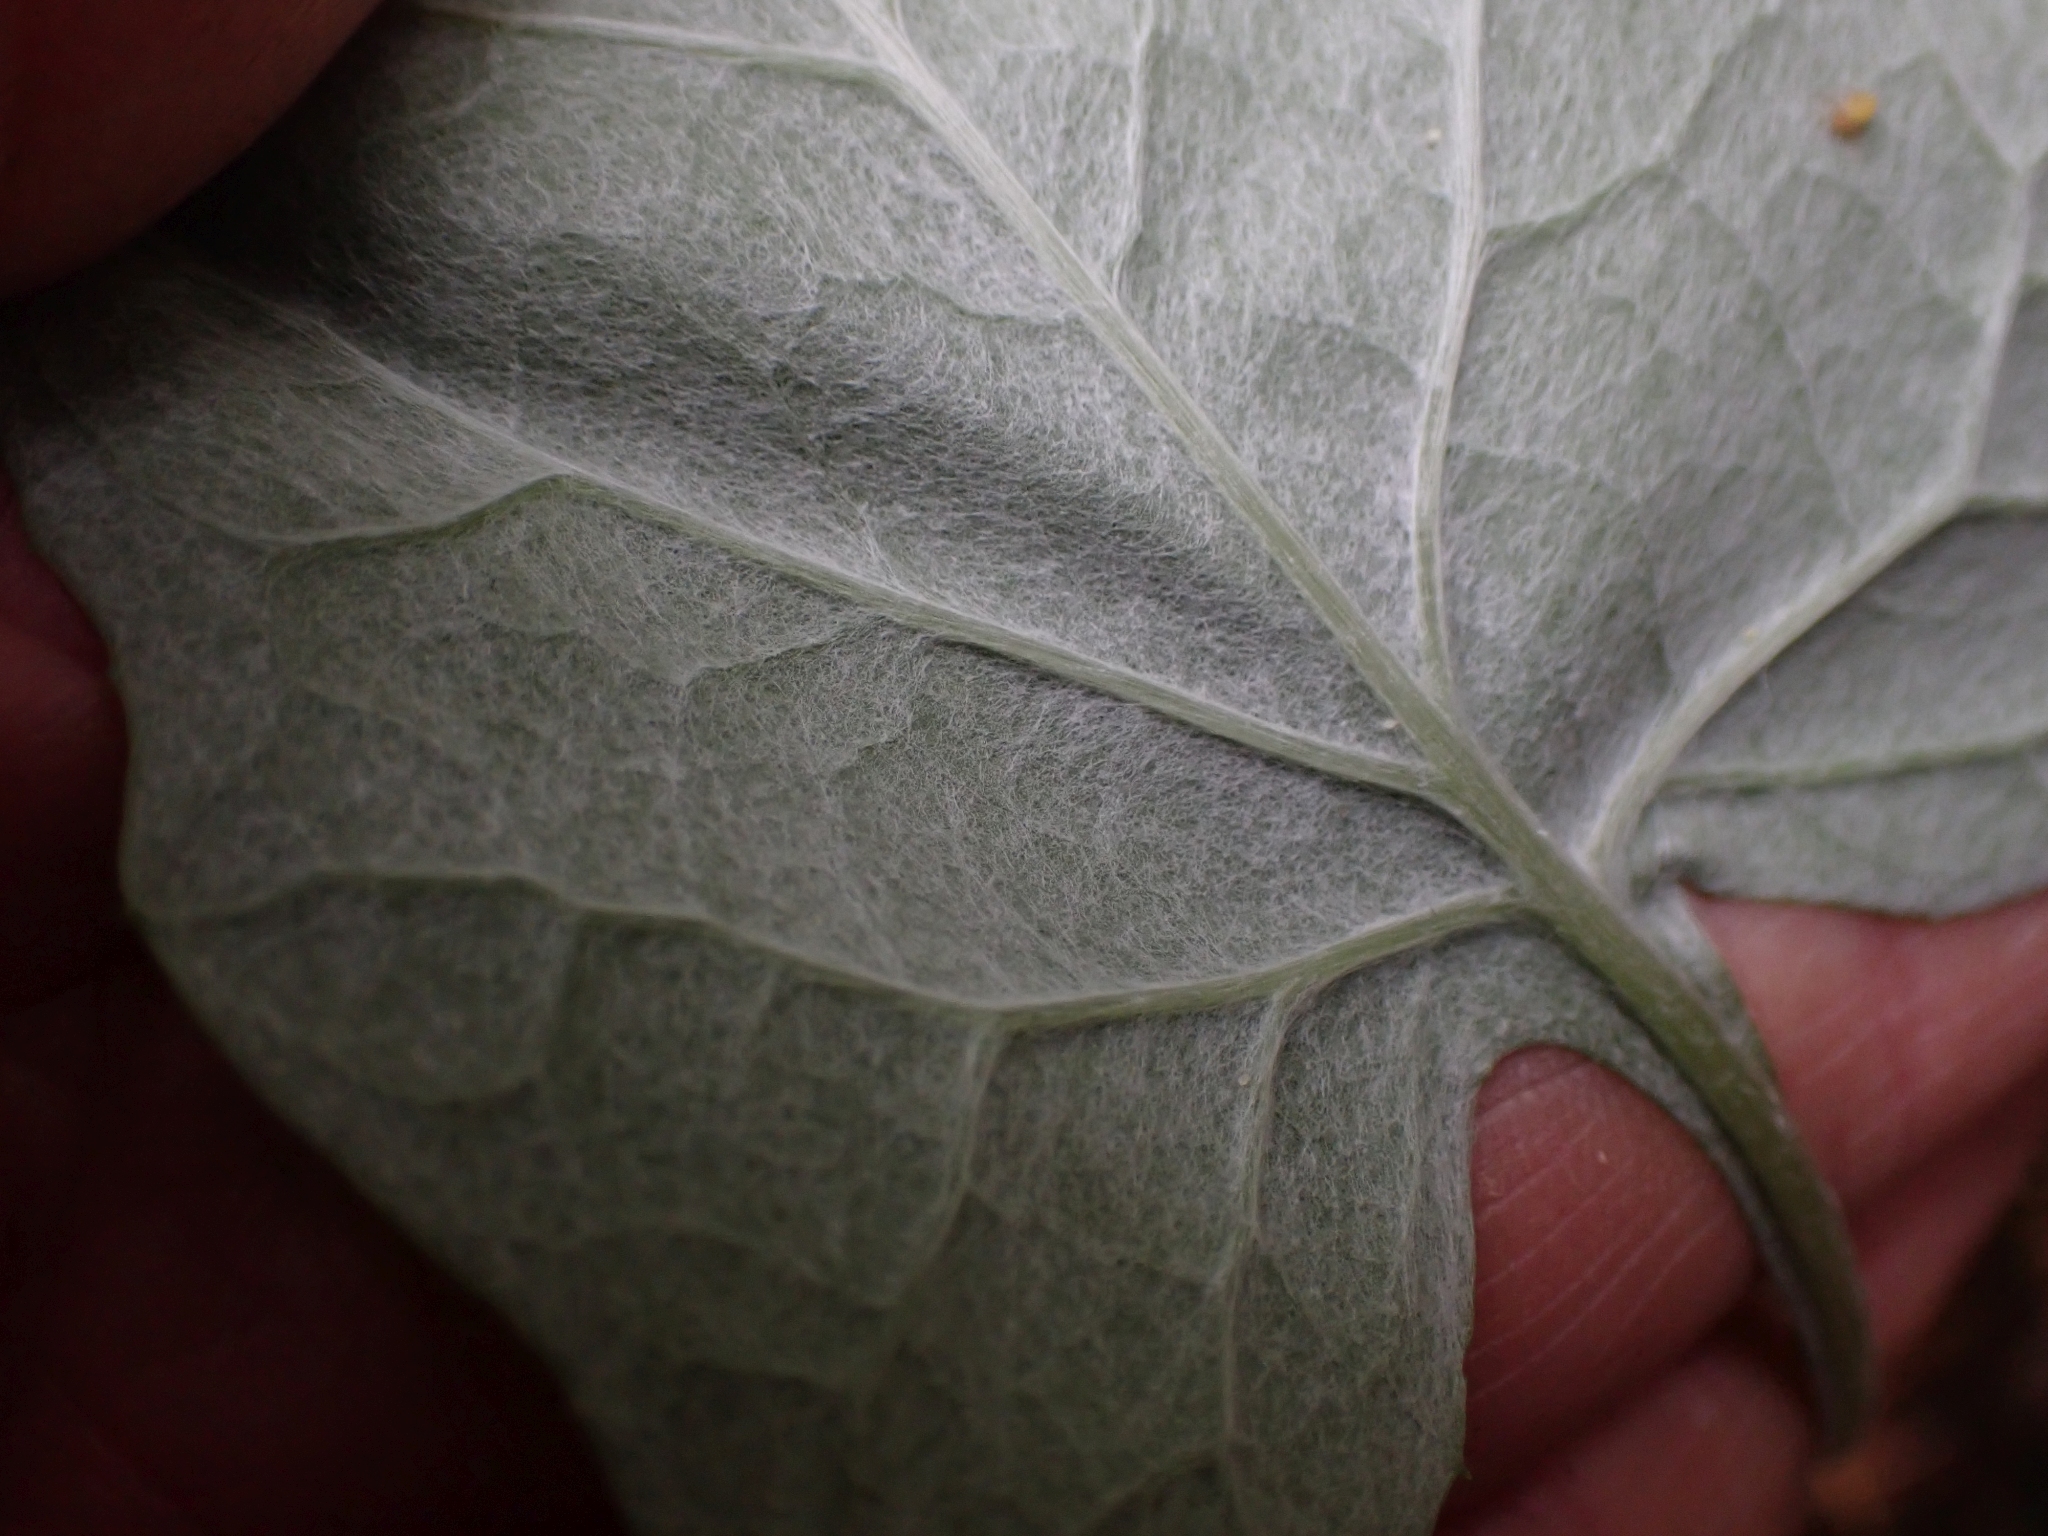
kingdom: Plantae
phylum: Tracheophyta
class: Magnoliopsida
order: Asterales
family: Asteraceae
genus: Adenocaulon
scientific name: Adenocaulon bicolor
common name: Trailplant
